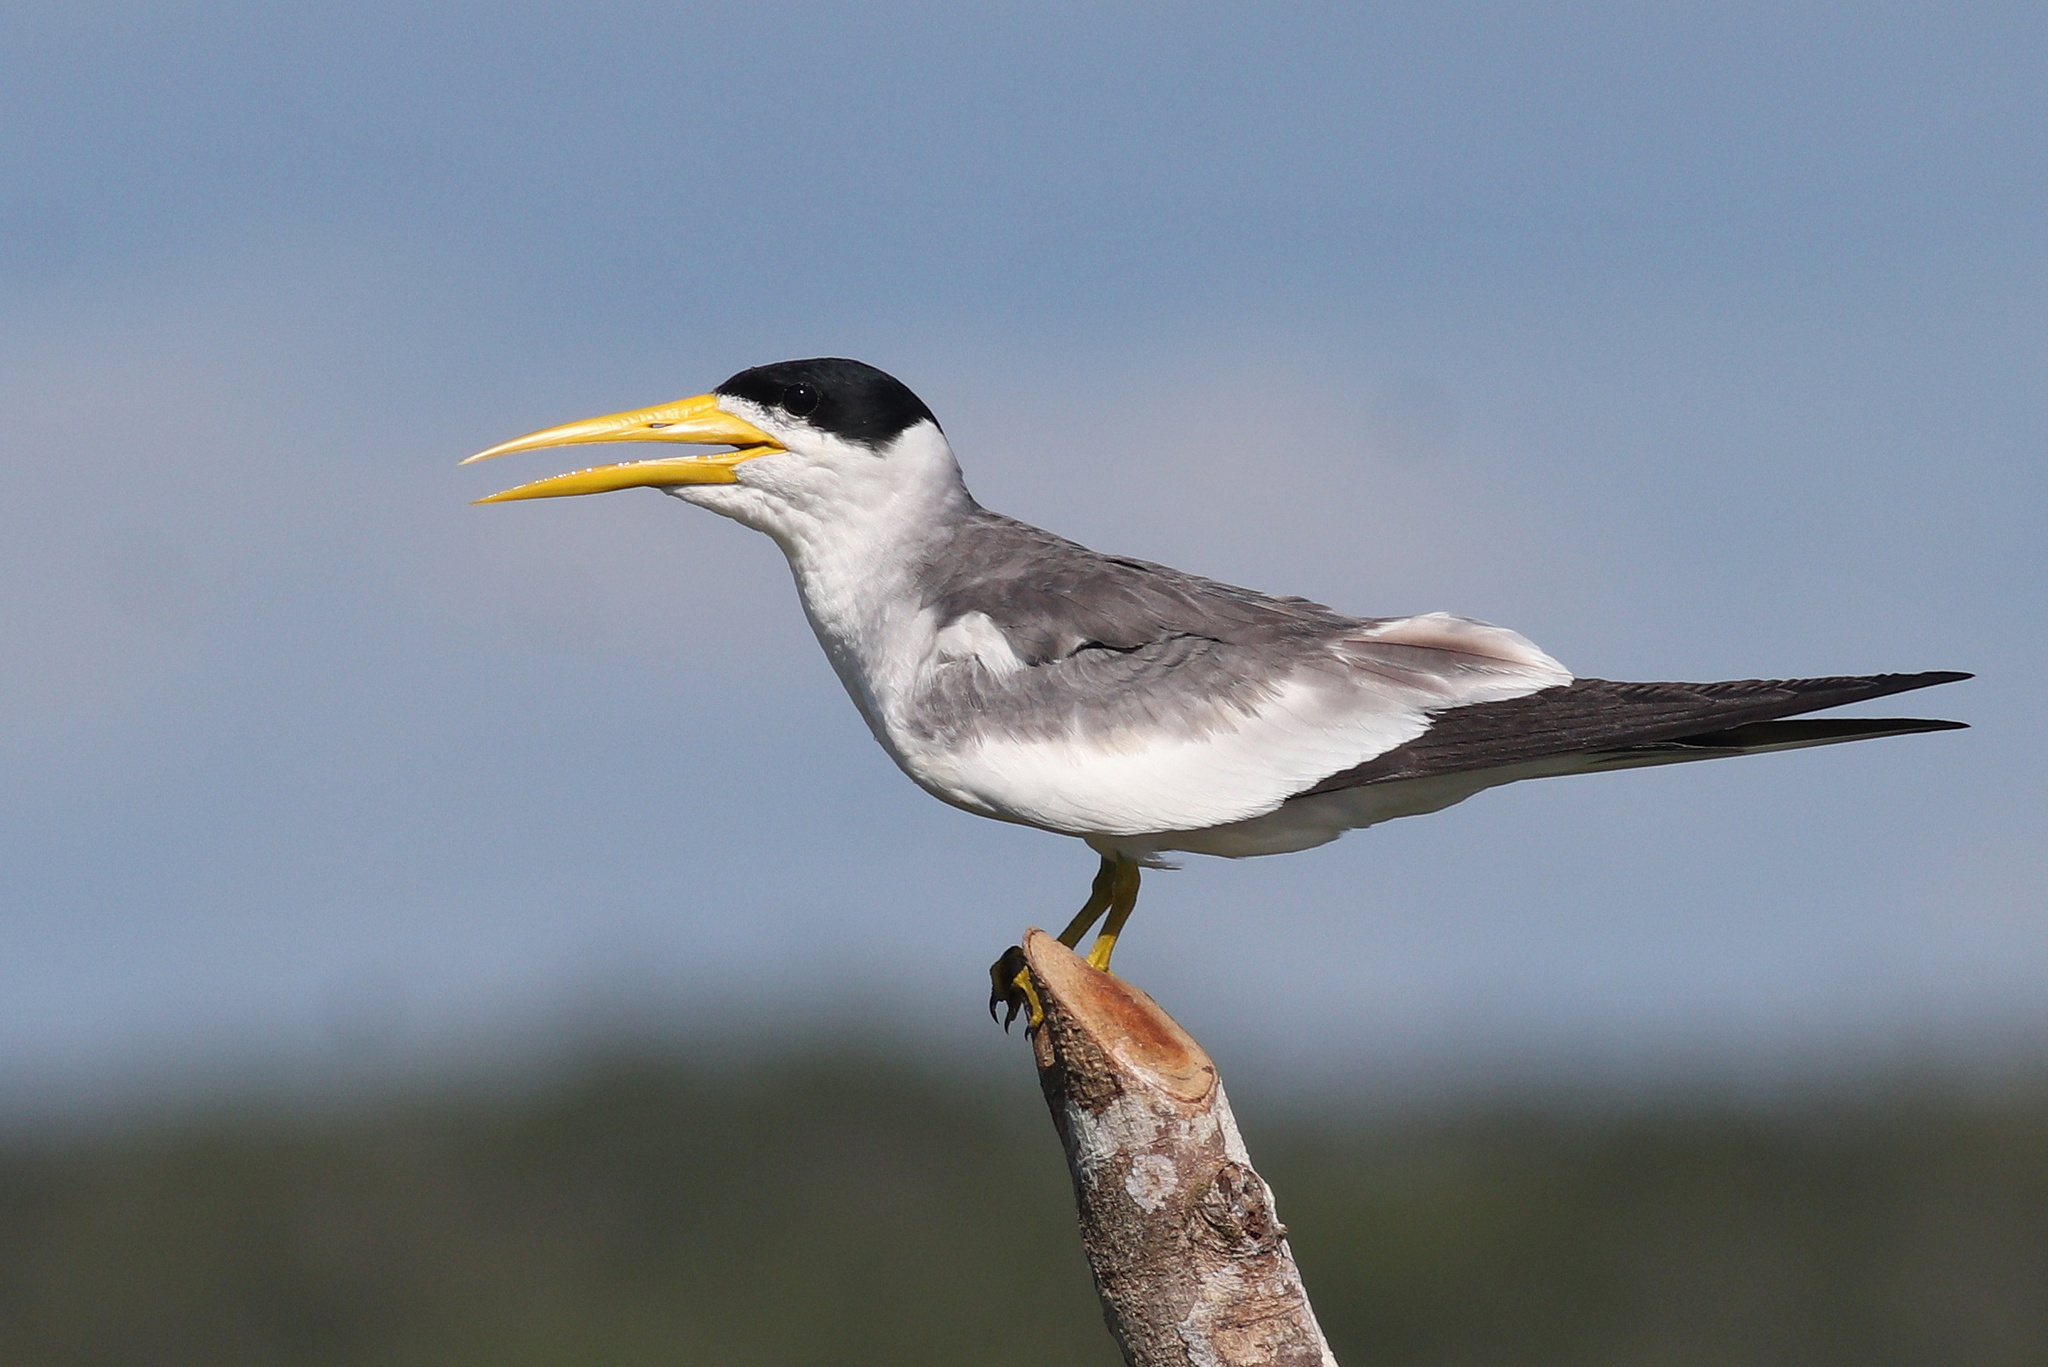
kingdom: Animalia
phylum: Chordata
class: Aves
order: Charadriiformes
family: Laridae
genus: Phaetusa
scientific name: Phaetusa simplex
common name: Large-billed tern
